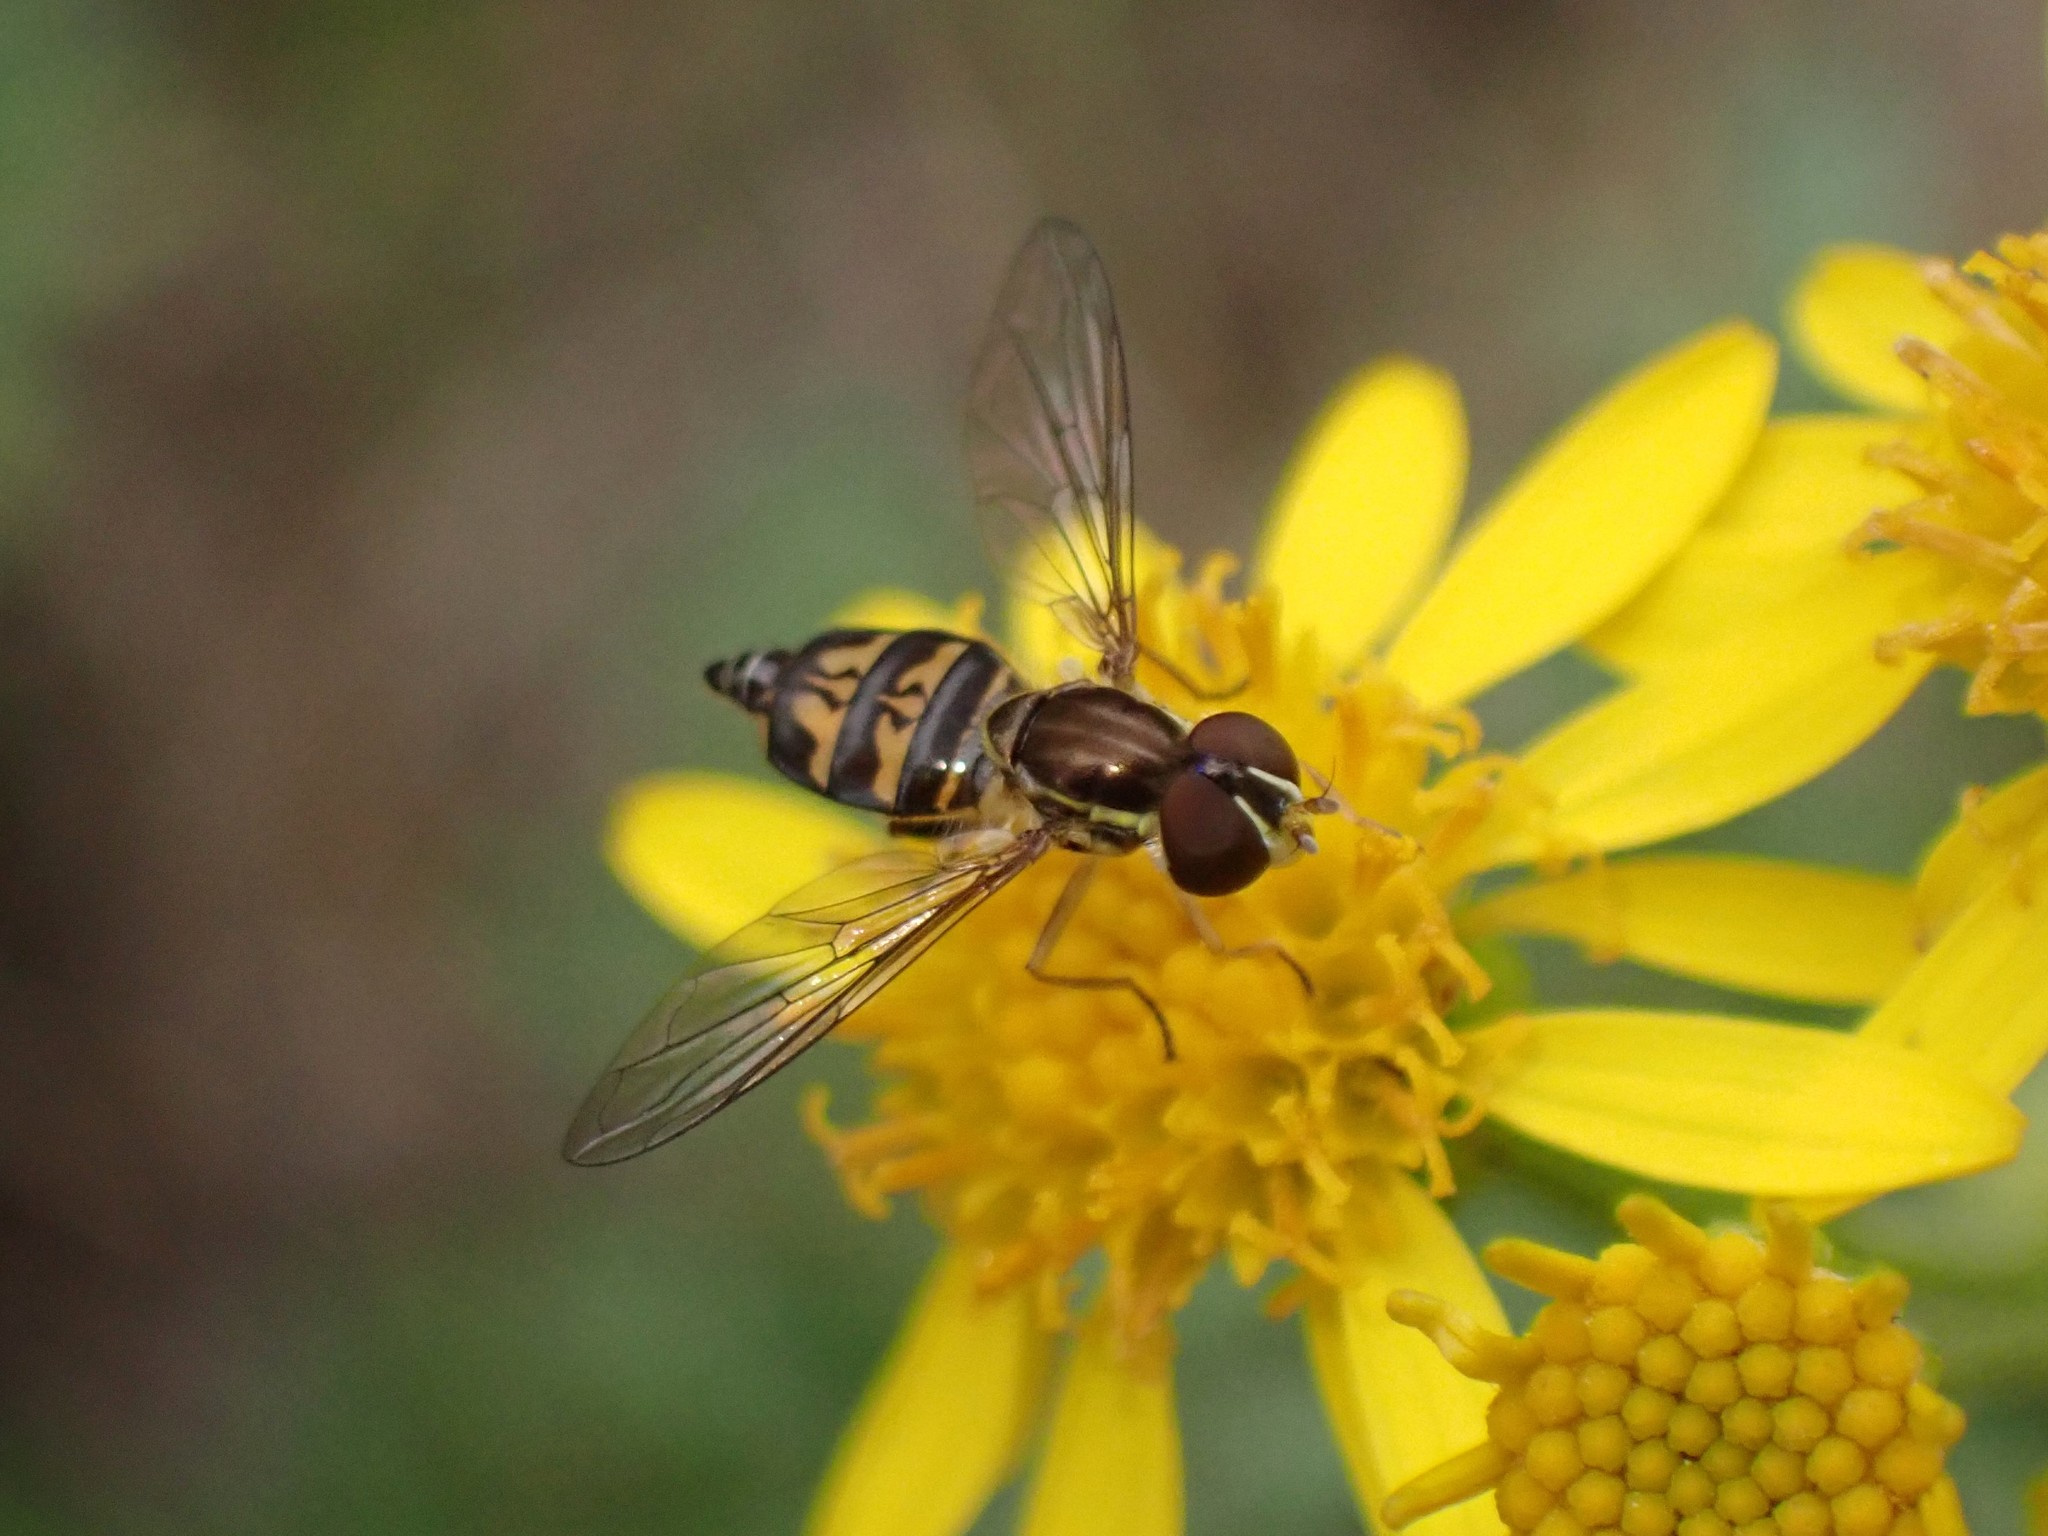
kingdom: Animalia
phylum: Arthropoda
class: Insecta
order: Diptera
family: Syrphidae
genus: Toxomerus
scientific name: Toxomerus occidentalis
